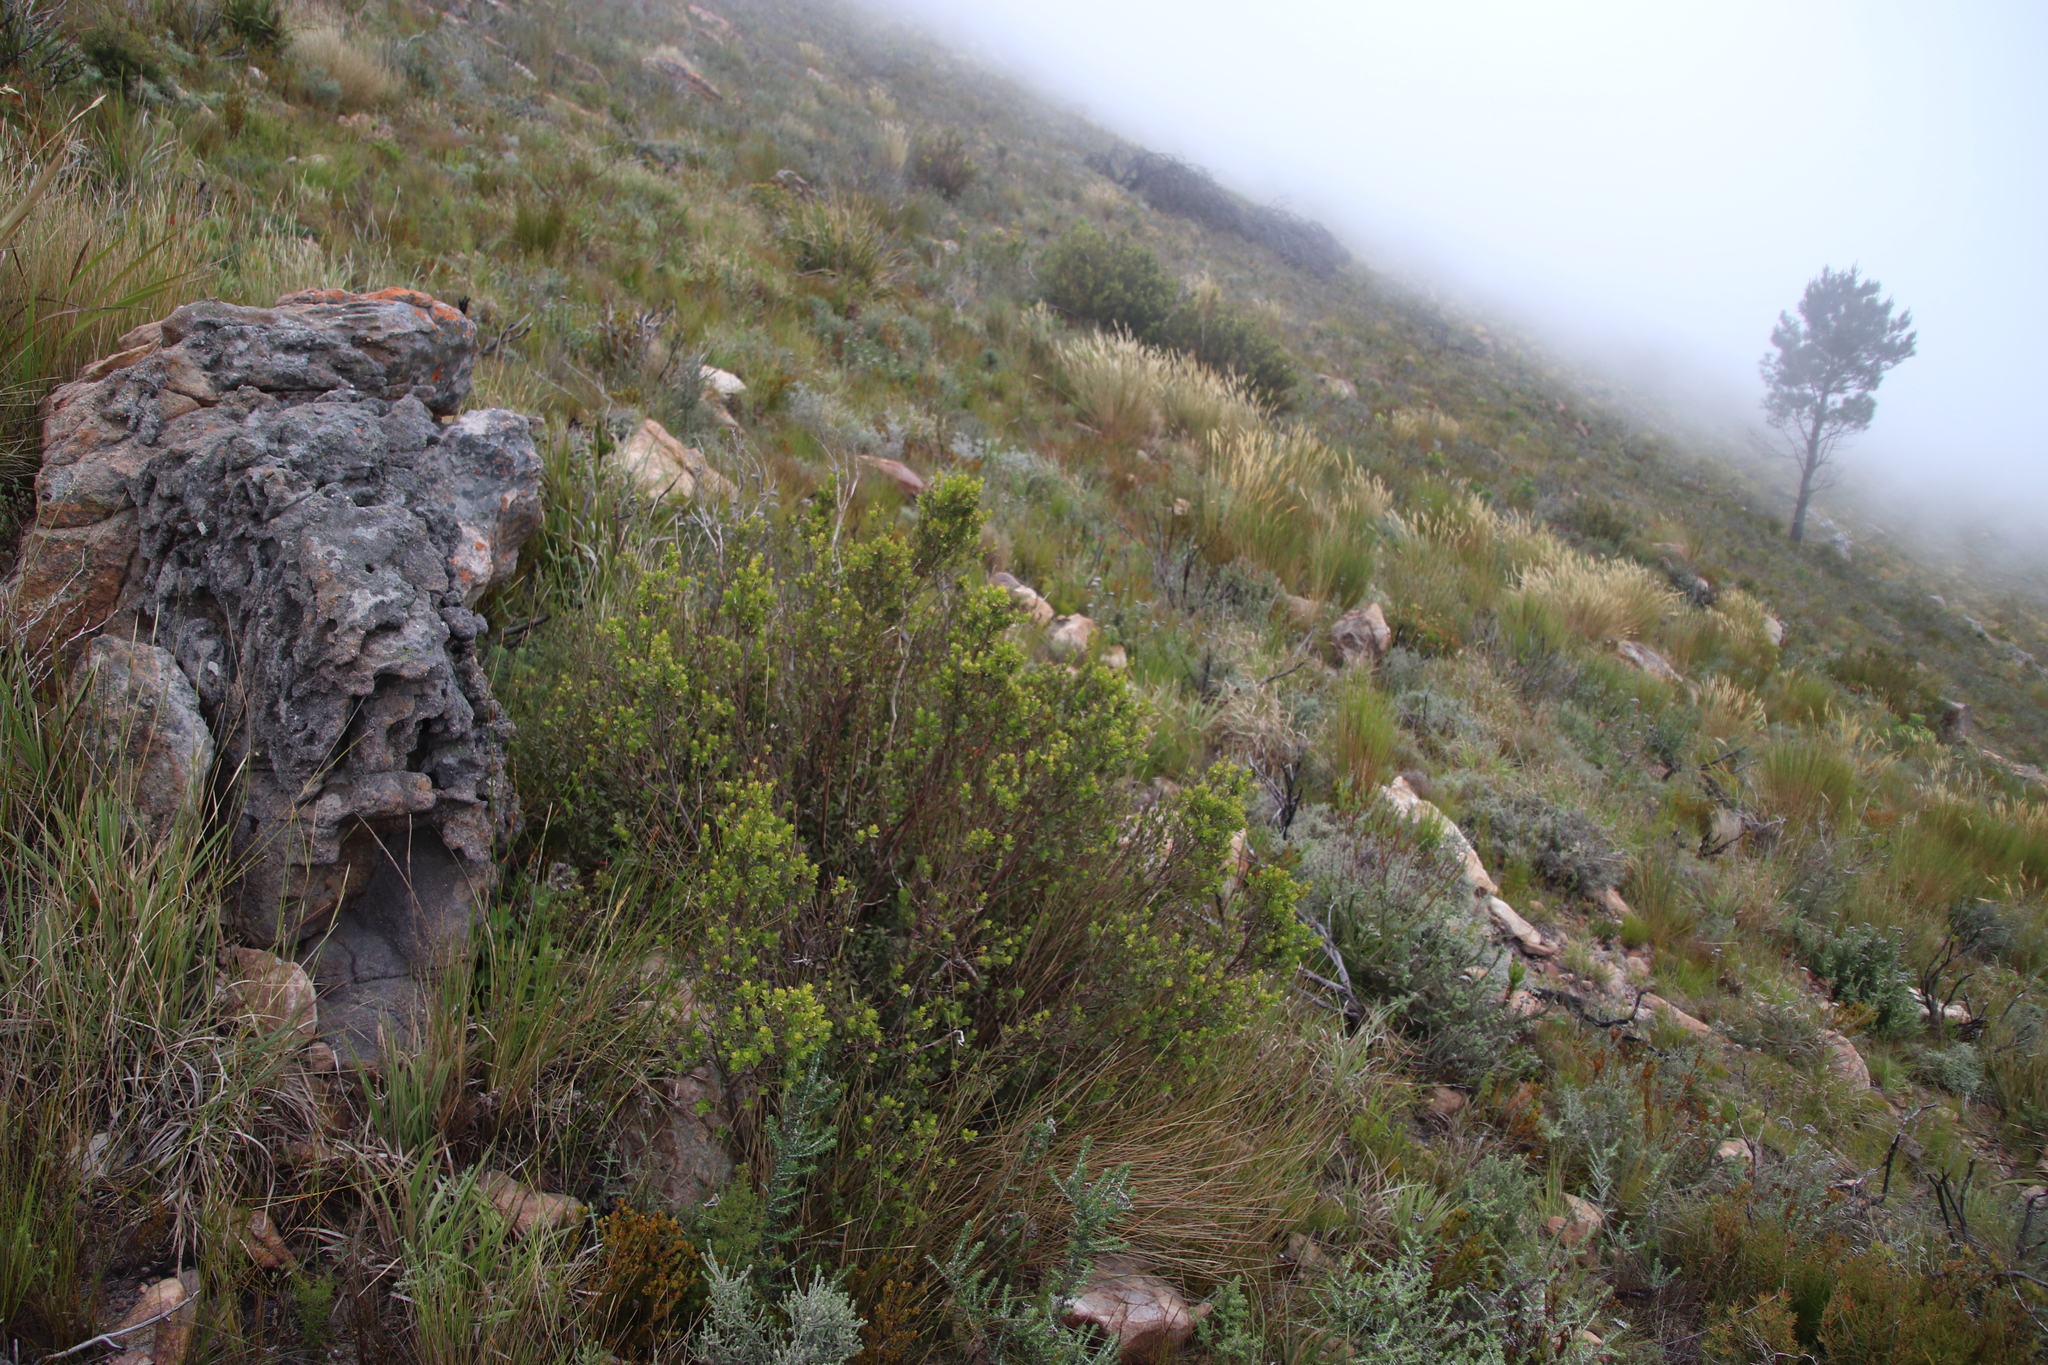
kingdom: Plantae
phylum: Tracheophyta
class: Magnoliopsida
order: Ericales
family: Ebenaceae
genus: Diospyros
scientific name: Diospyros glabra
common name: Fynbos star apple
